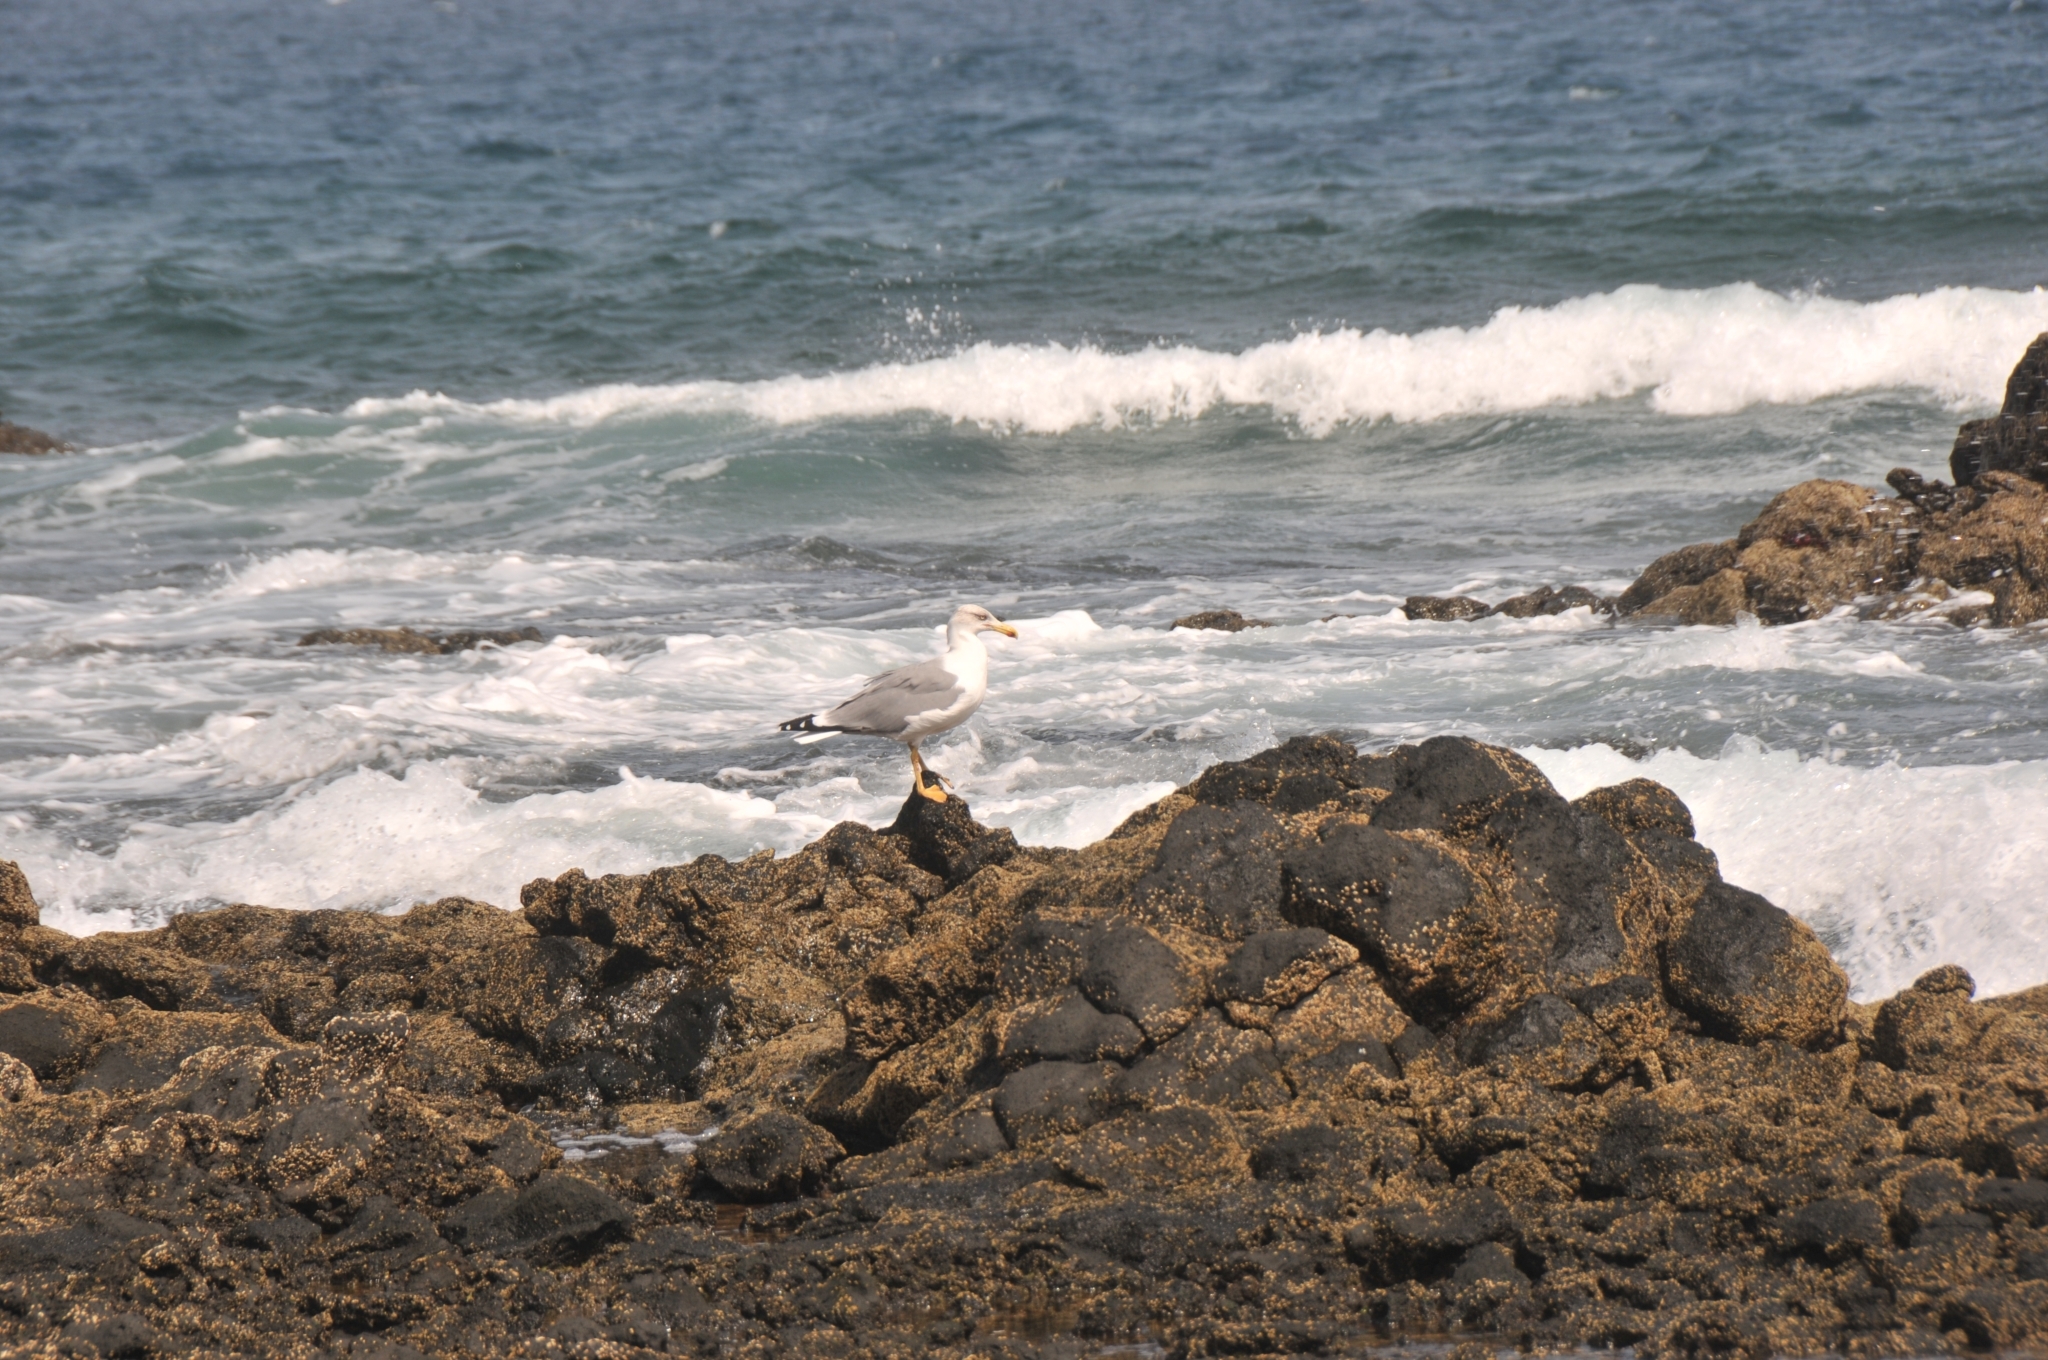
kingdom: Animalia
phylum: Chordata
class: Aves
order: Charadriiformes
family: Laridae
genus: Larus
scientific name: Larus michahellis
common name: Yellow-legged gull
